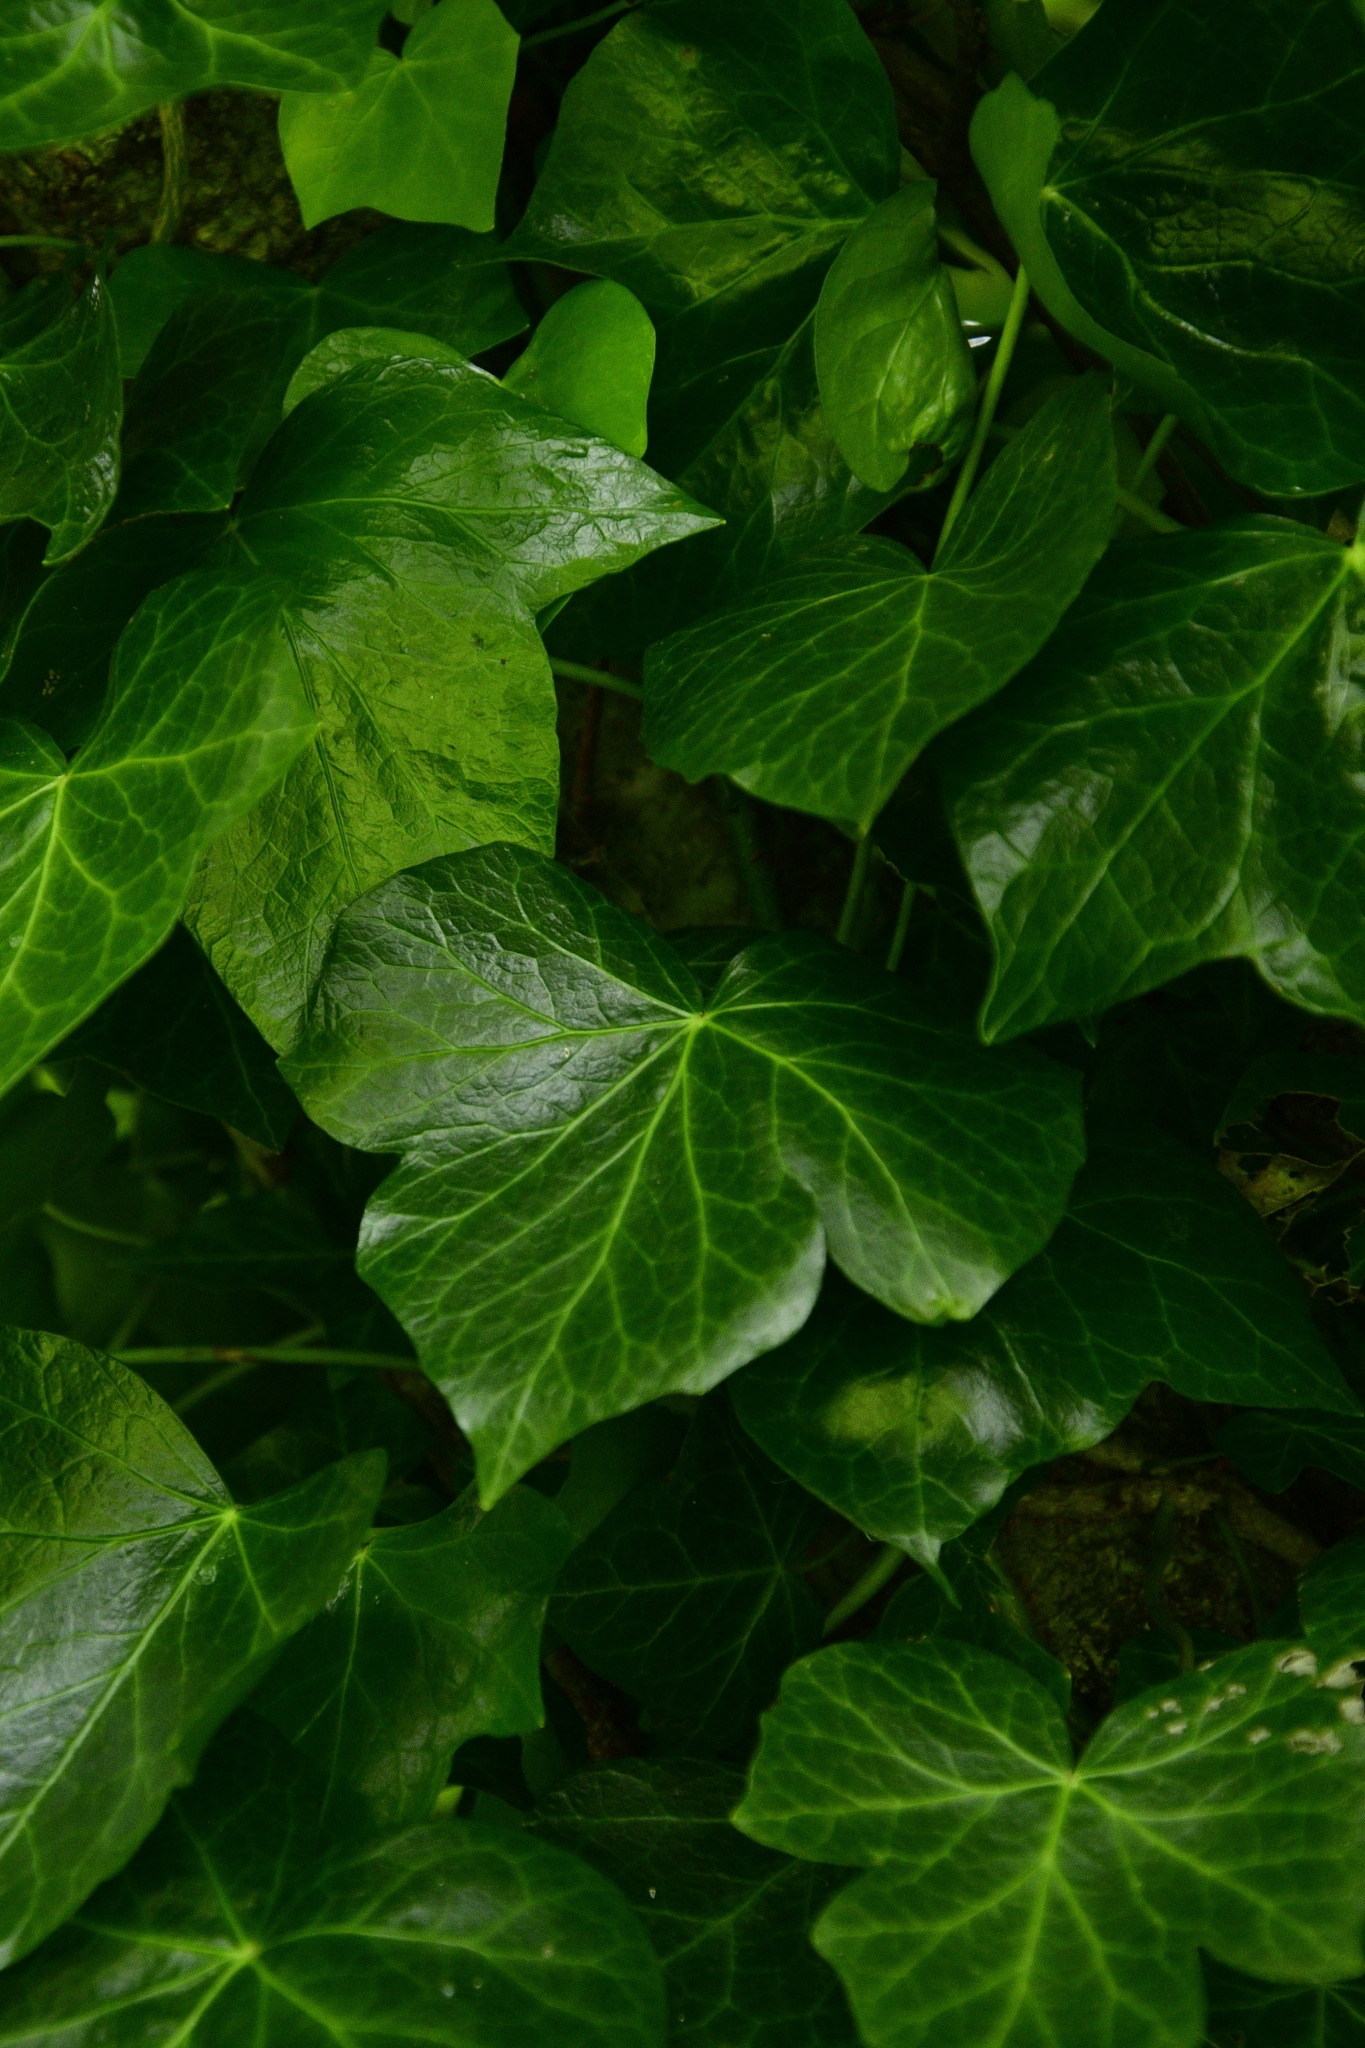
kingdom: Plantae
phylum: Tracheophyta
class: Magnoliopsida
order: Apiales
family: Araliaceae
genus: Hedera
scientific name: Hedera helix
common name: Ivy
